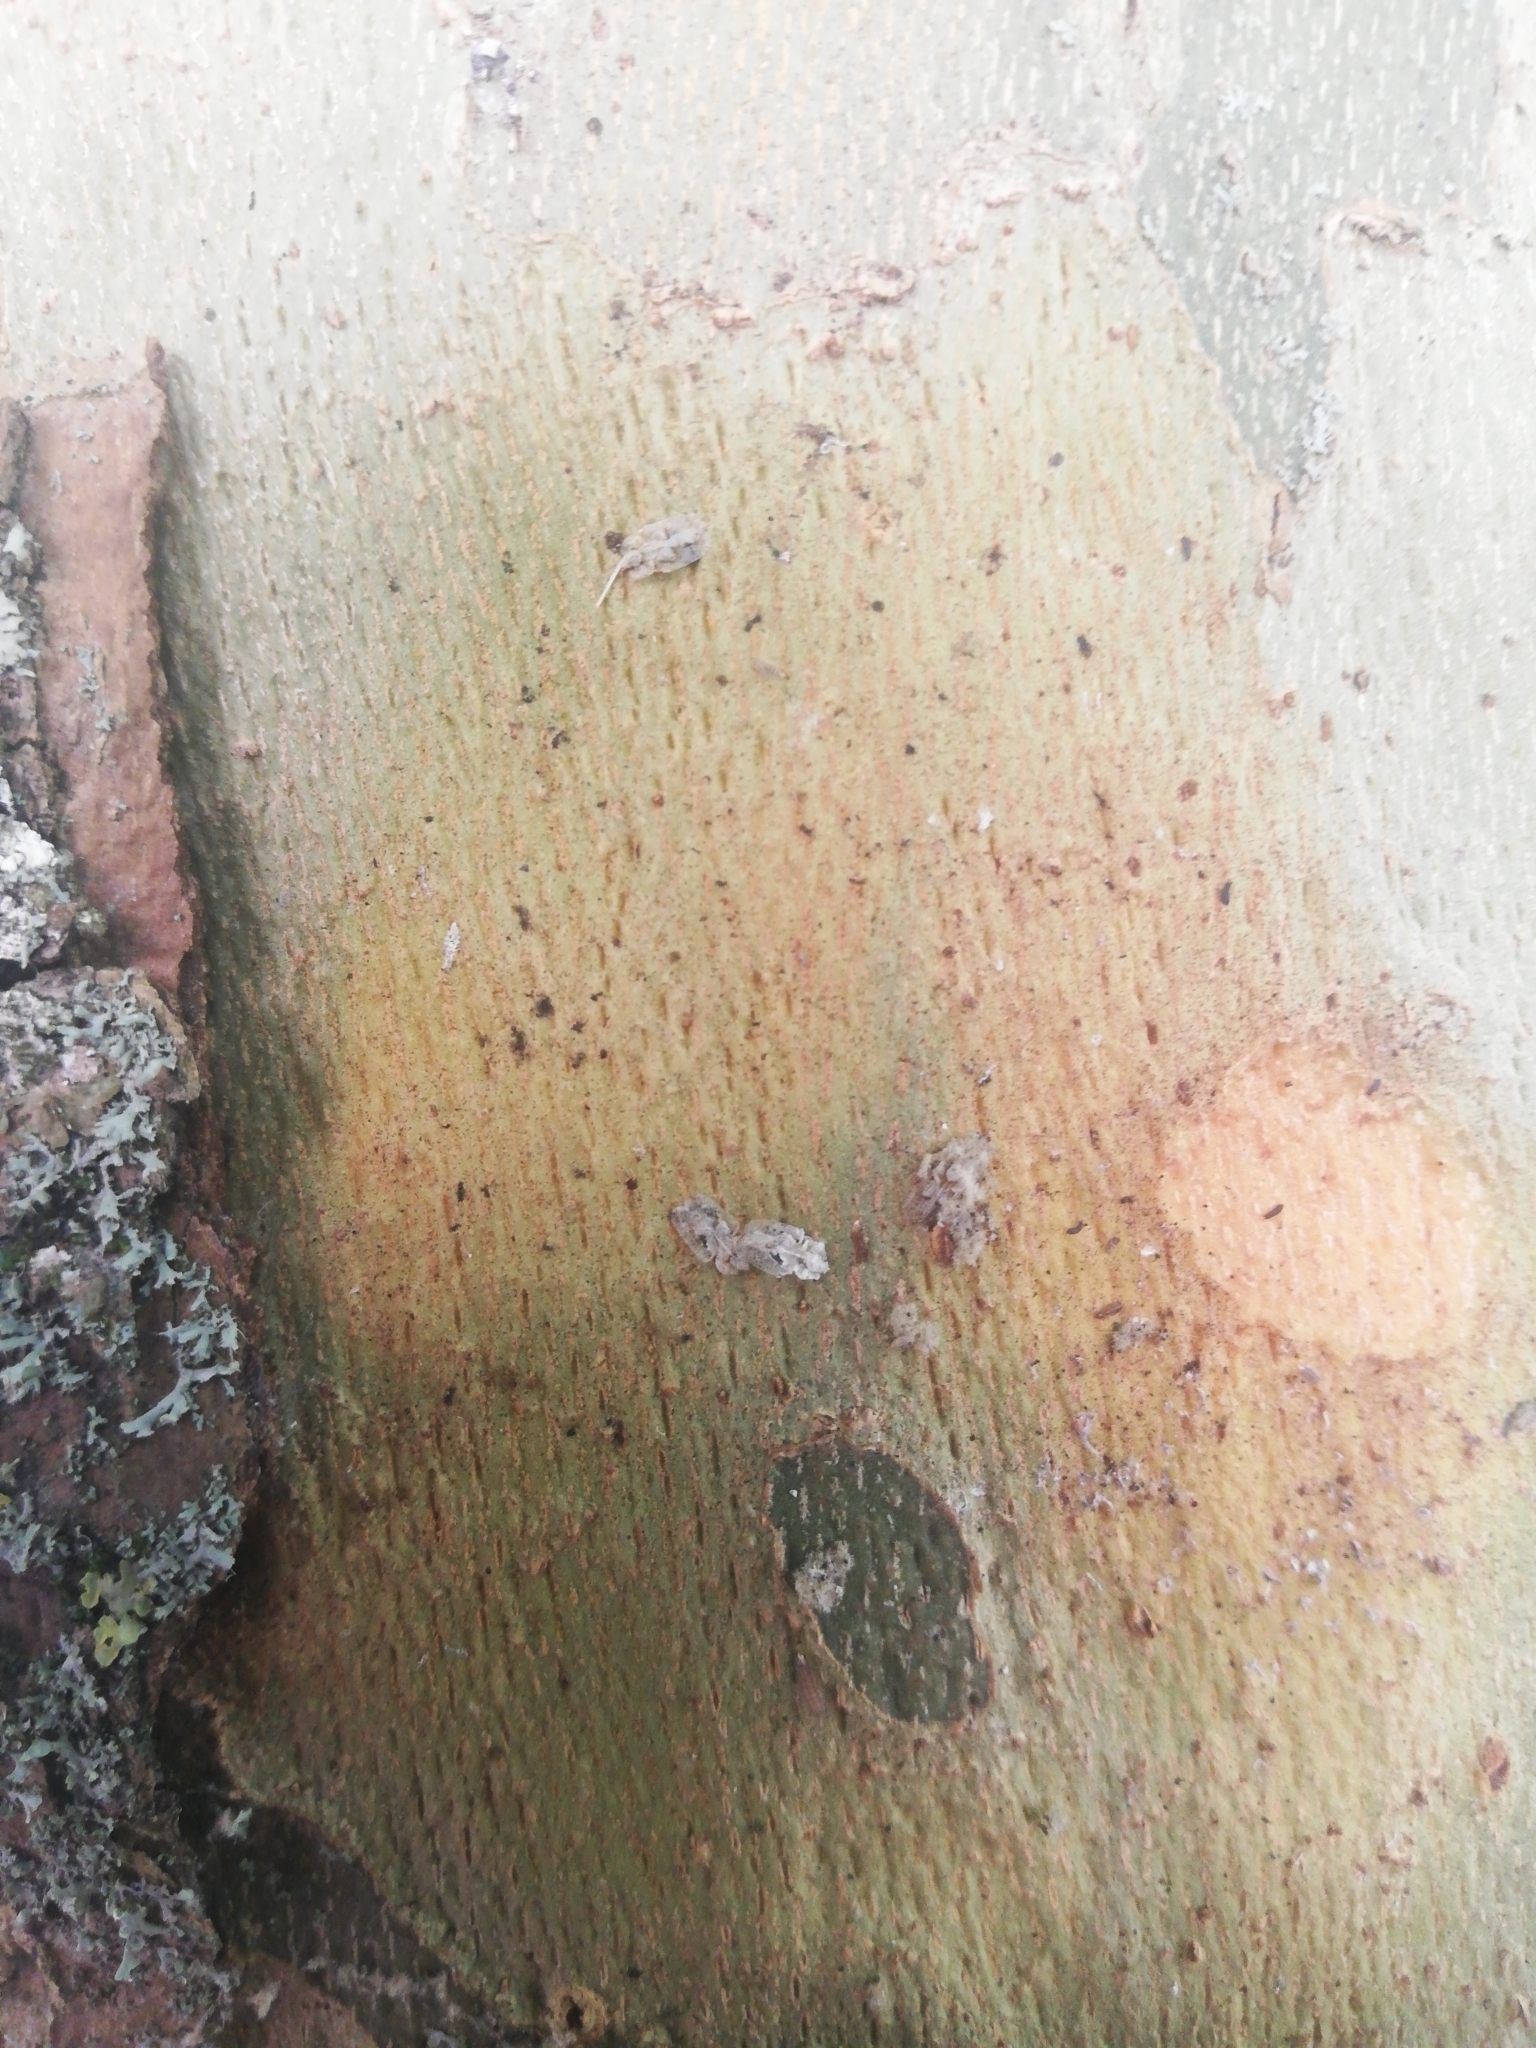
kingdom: Animalia
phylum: Arthropoda
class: Insecta
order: Hemiptera
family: Tingidae
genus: Corythucha
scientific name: Corythucha ciliata
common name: Sycamore lace bug
